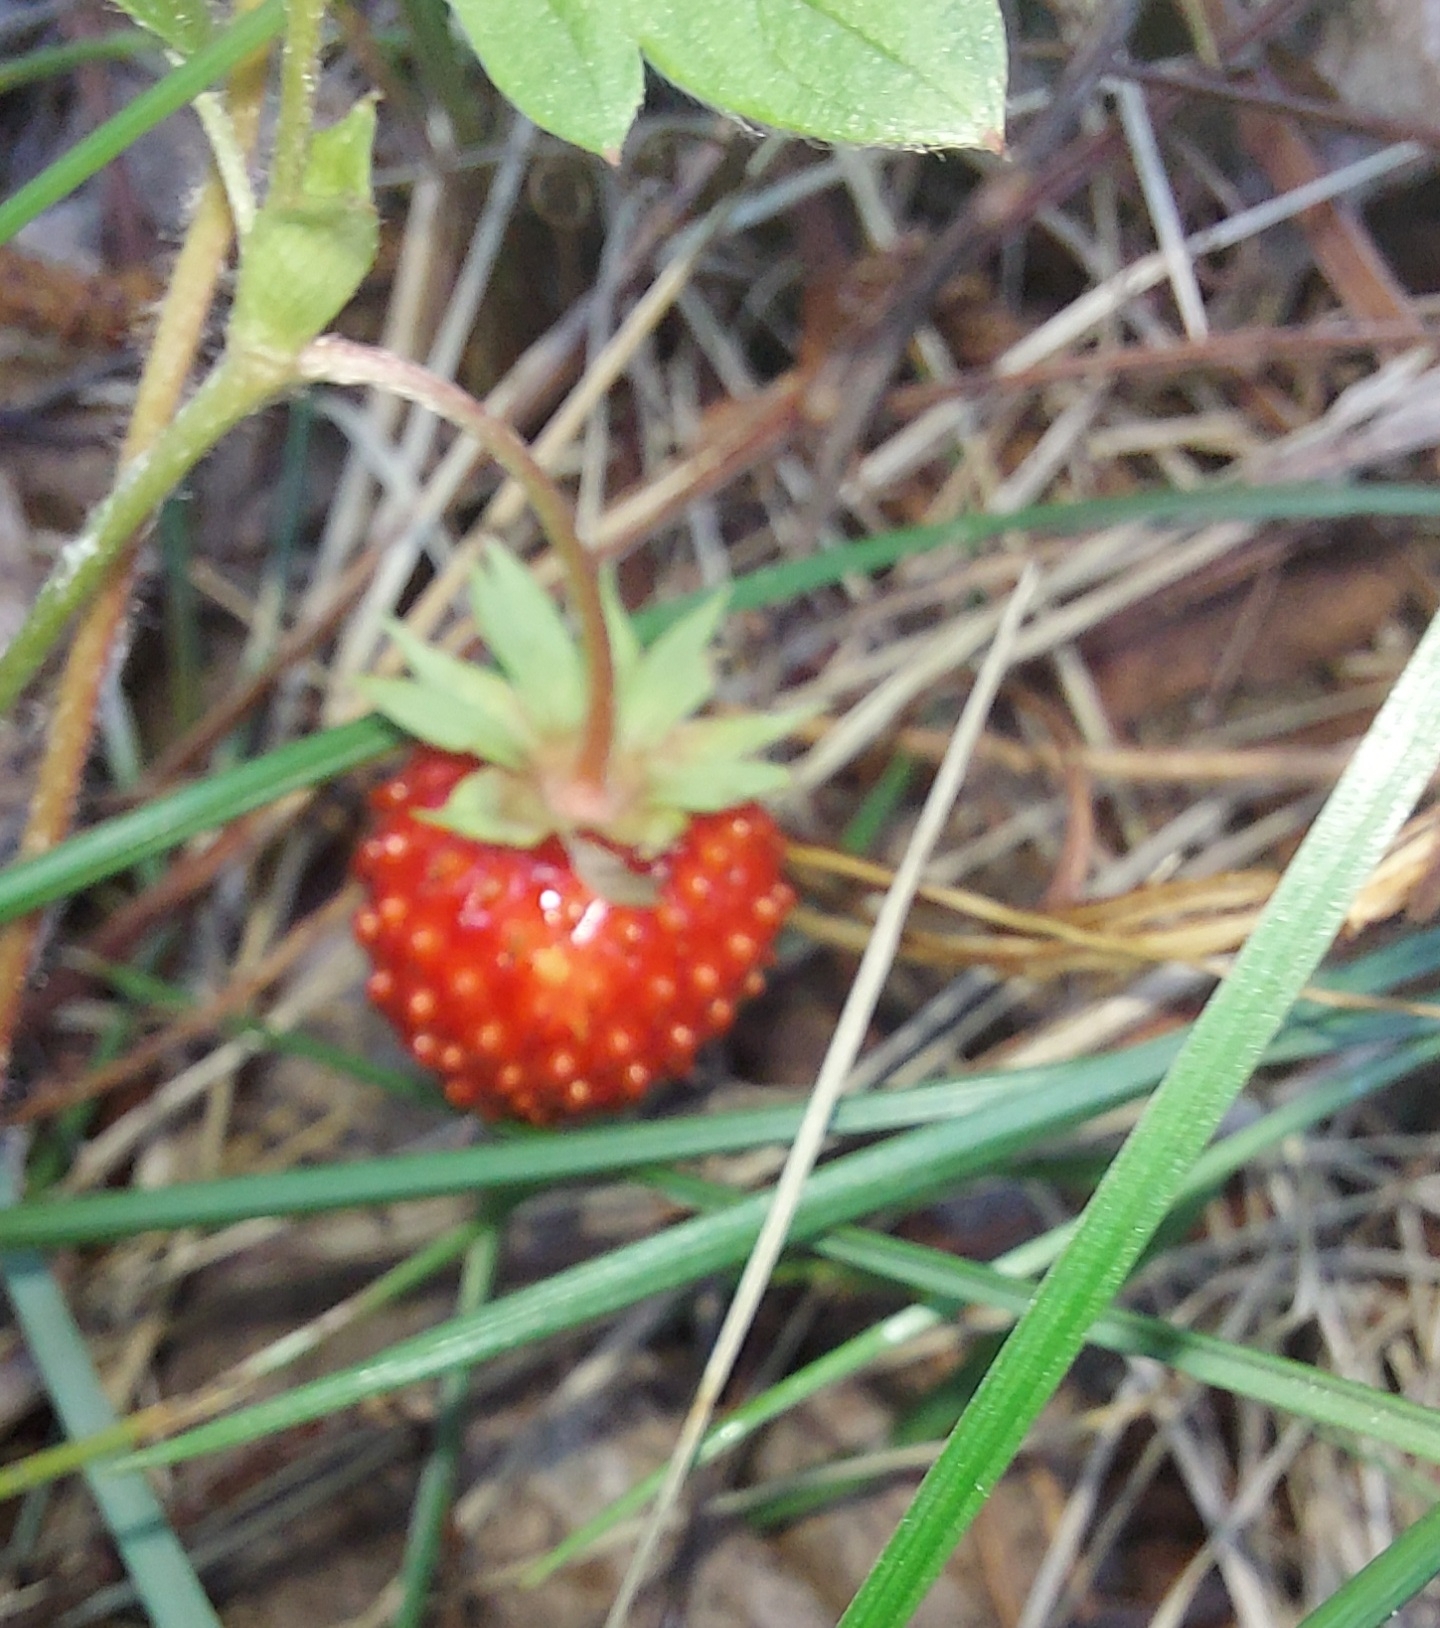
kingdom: Plantae
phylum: Tracheophyta
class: Magnoliopsida
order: Rosales
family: Rosaceae
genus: Fragaria
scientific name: Fragaria vesca
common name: Wild strawberry
